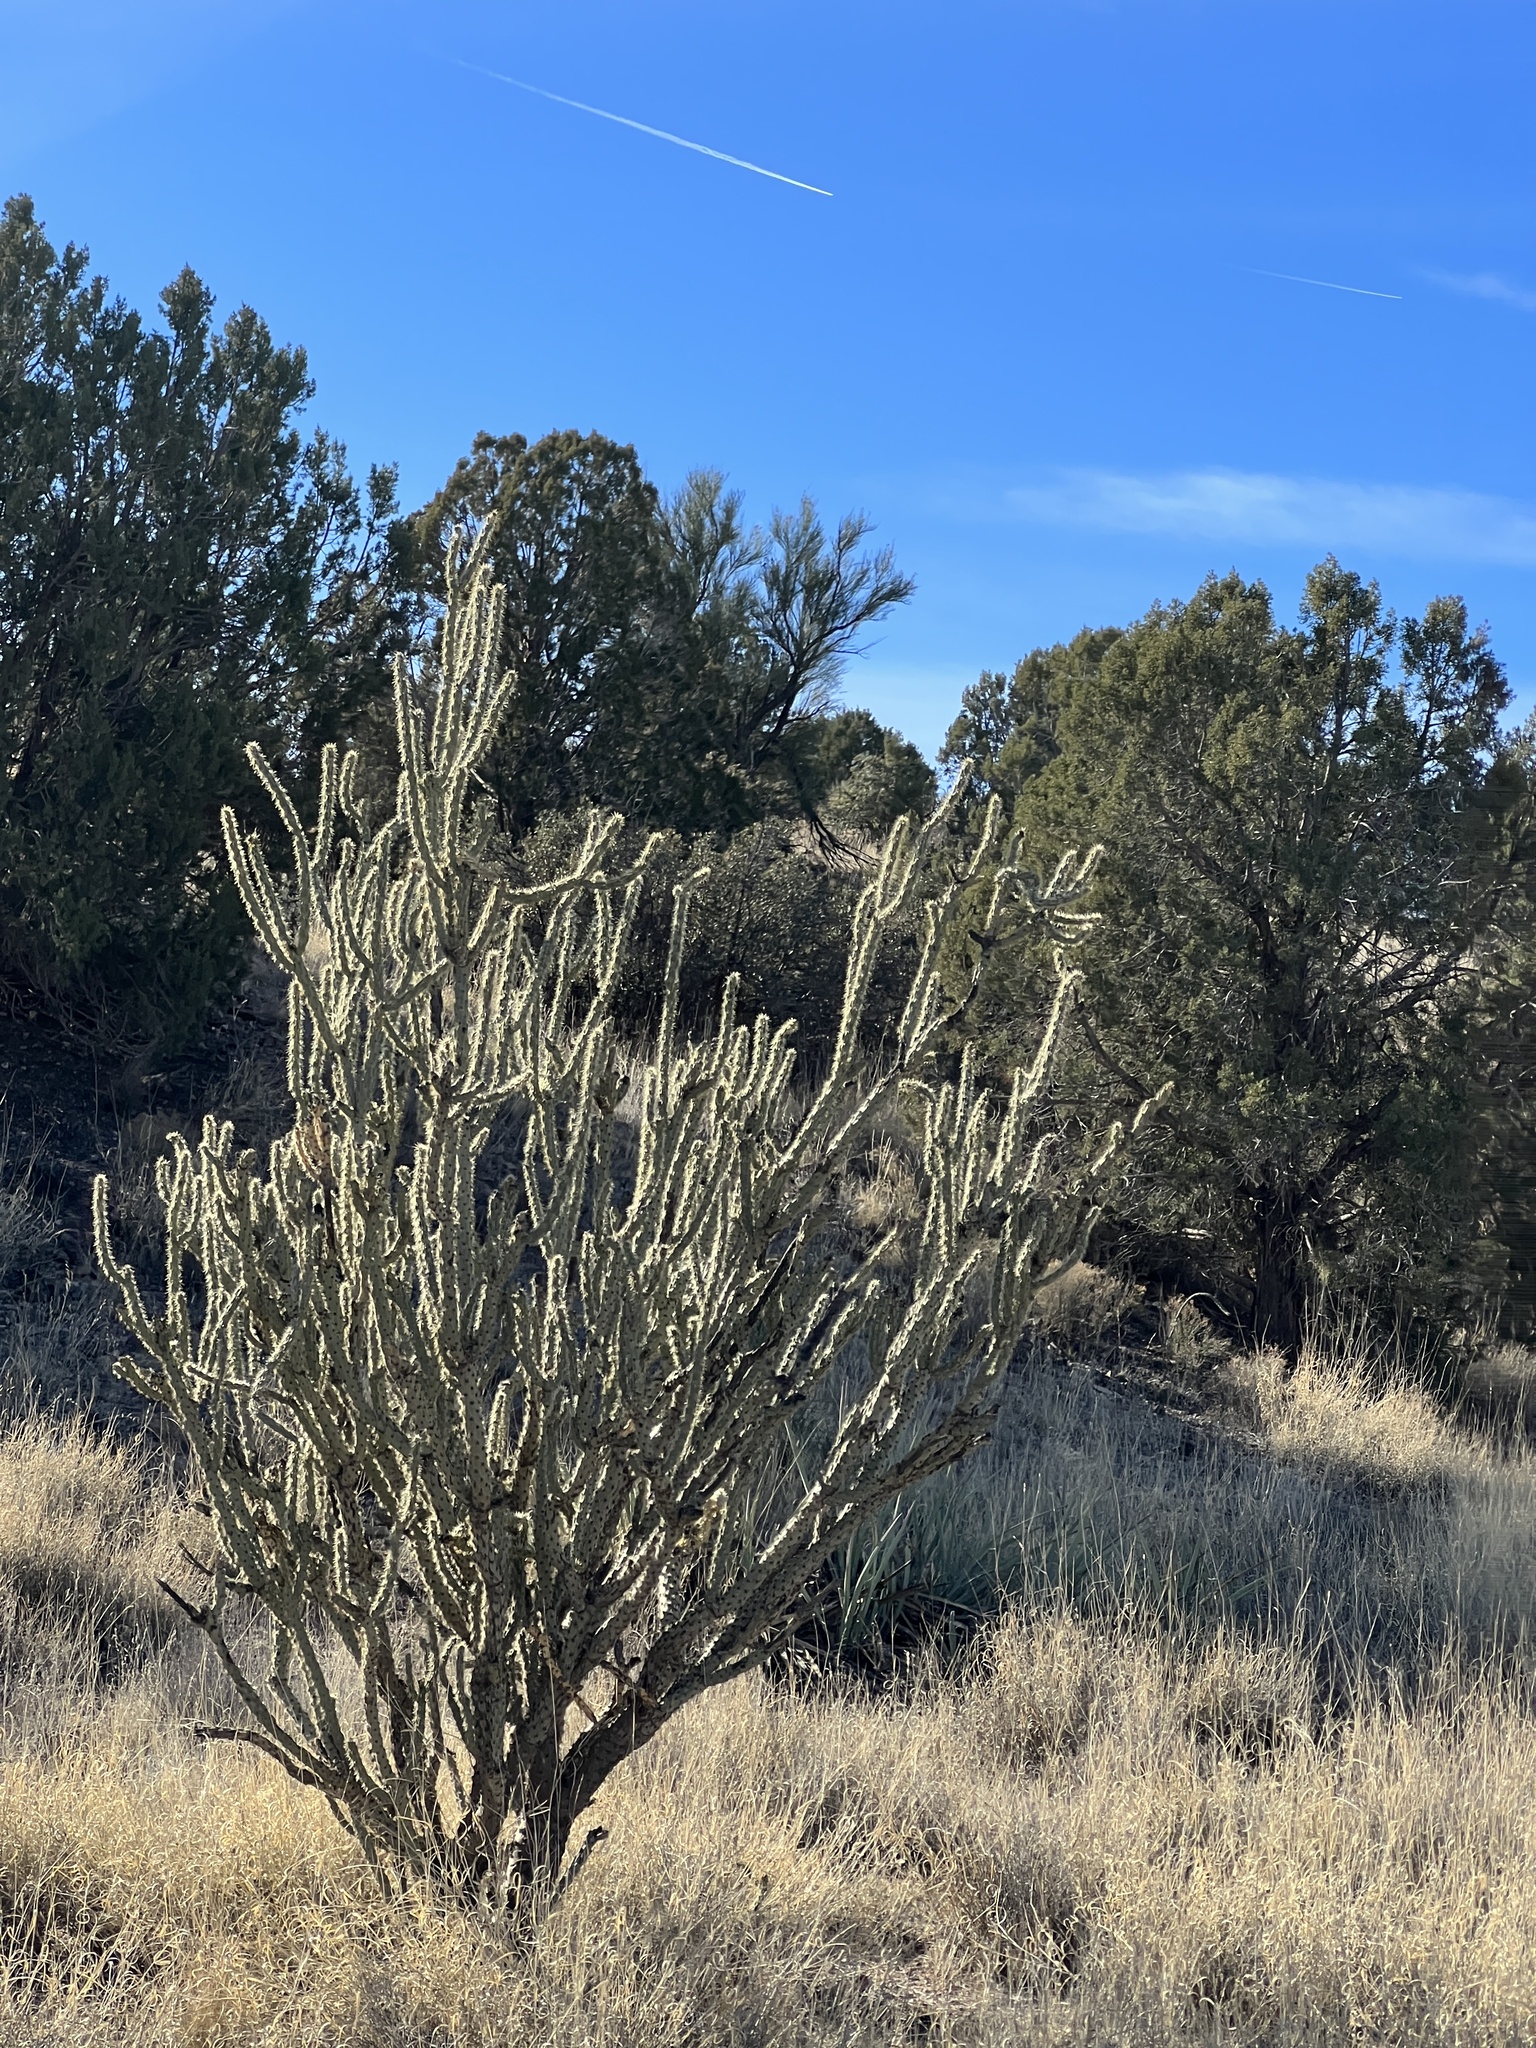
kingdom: Plantae
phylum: Tracheophyta
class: Magnoliopsida
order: Caryophyllales
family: Cactaceae
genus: Cylindropuntia
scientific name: Cylindropuntia acanthocarpa
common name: Buckhorn cholla
